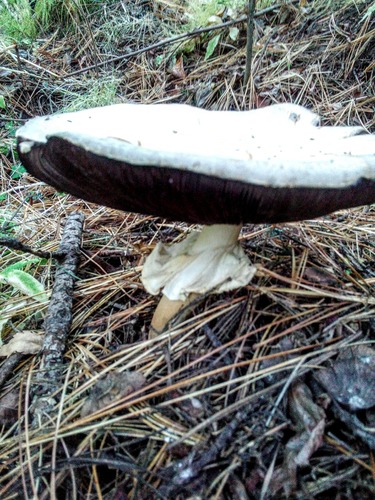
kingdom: Fungi
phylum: Basidiomycota
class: Agaricomycetes
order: Agaricales
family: Agaricaceae
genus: Agaricus
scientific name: Agaricus sylvicola
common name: Wood mushroom
